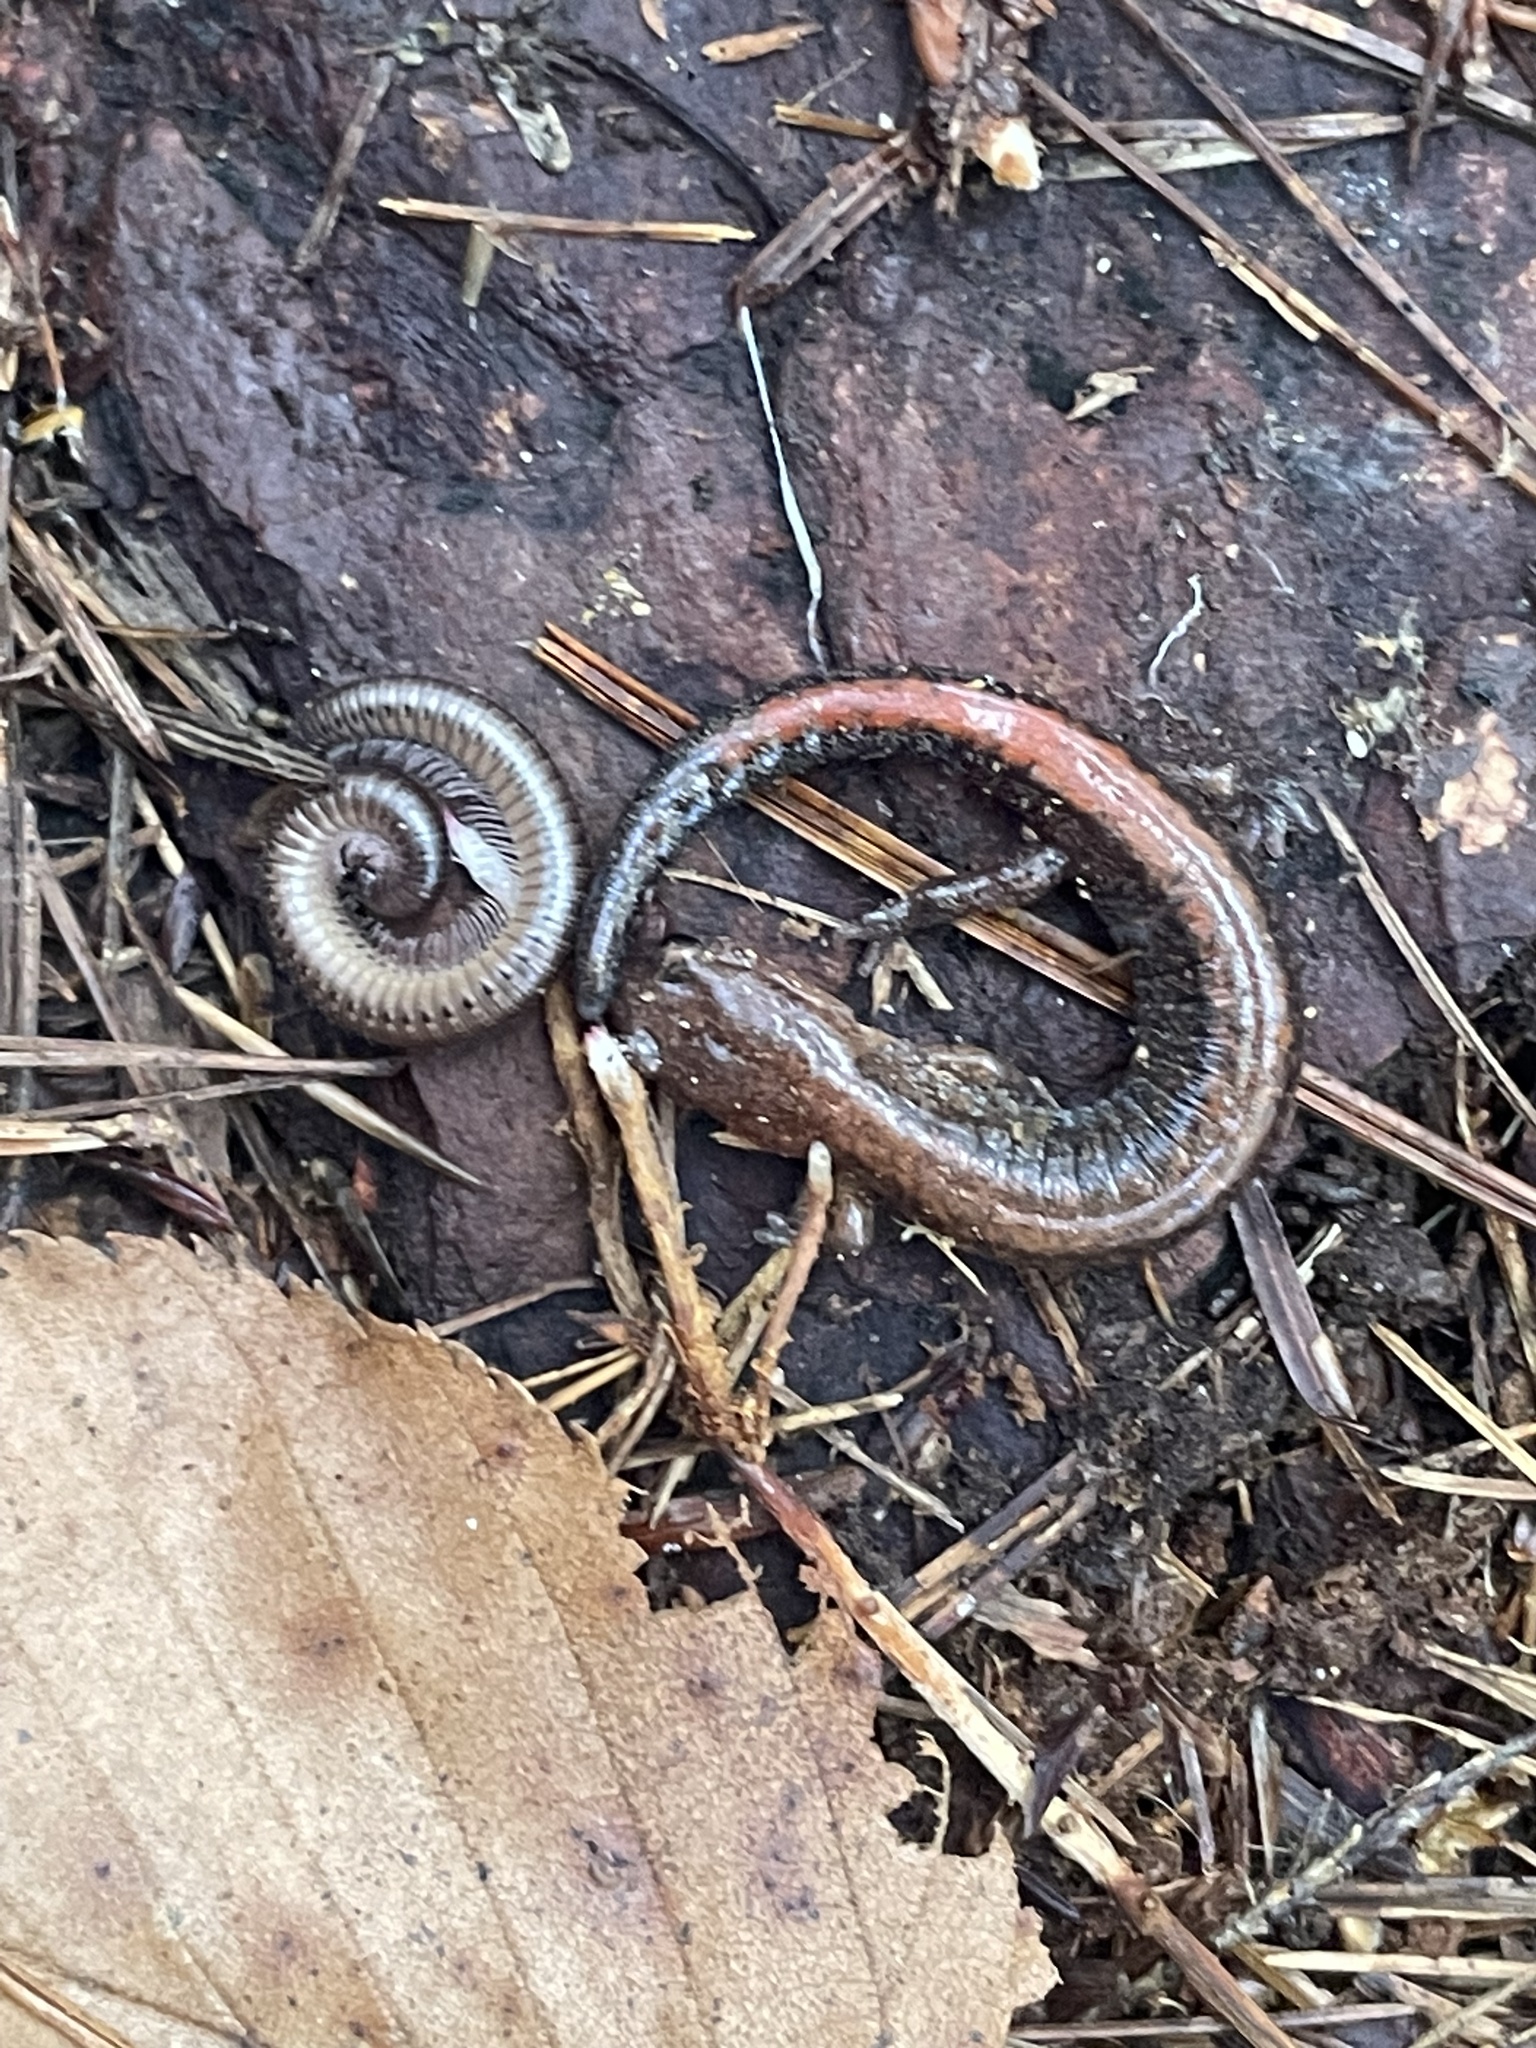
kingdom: Animalia
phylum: Chordata
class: Amphibia
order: Caudata
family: Plethodontidae
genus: Plethodon
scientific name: Plethodon cinereus
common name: Redback salamander
